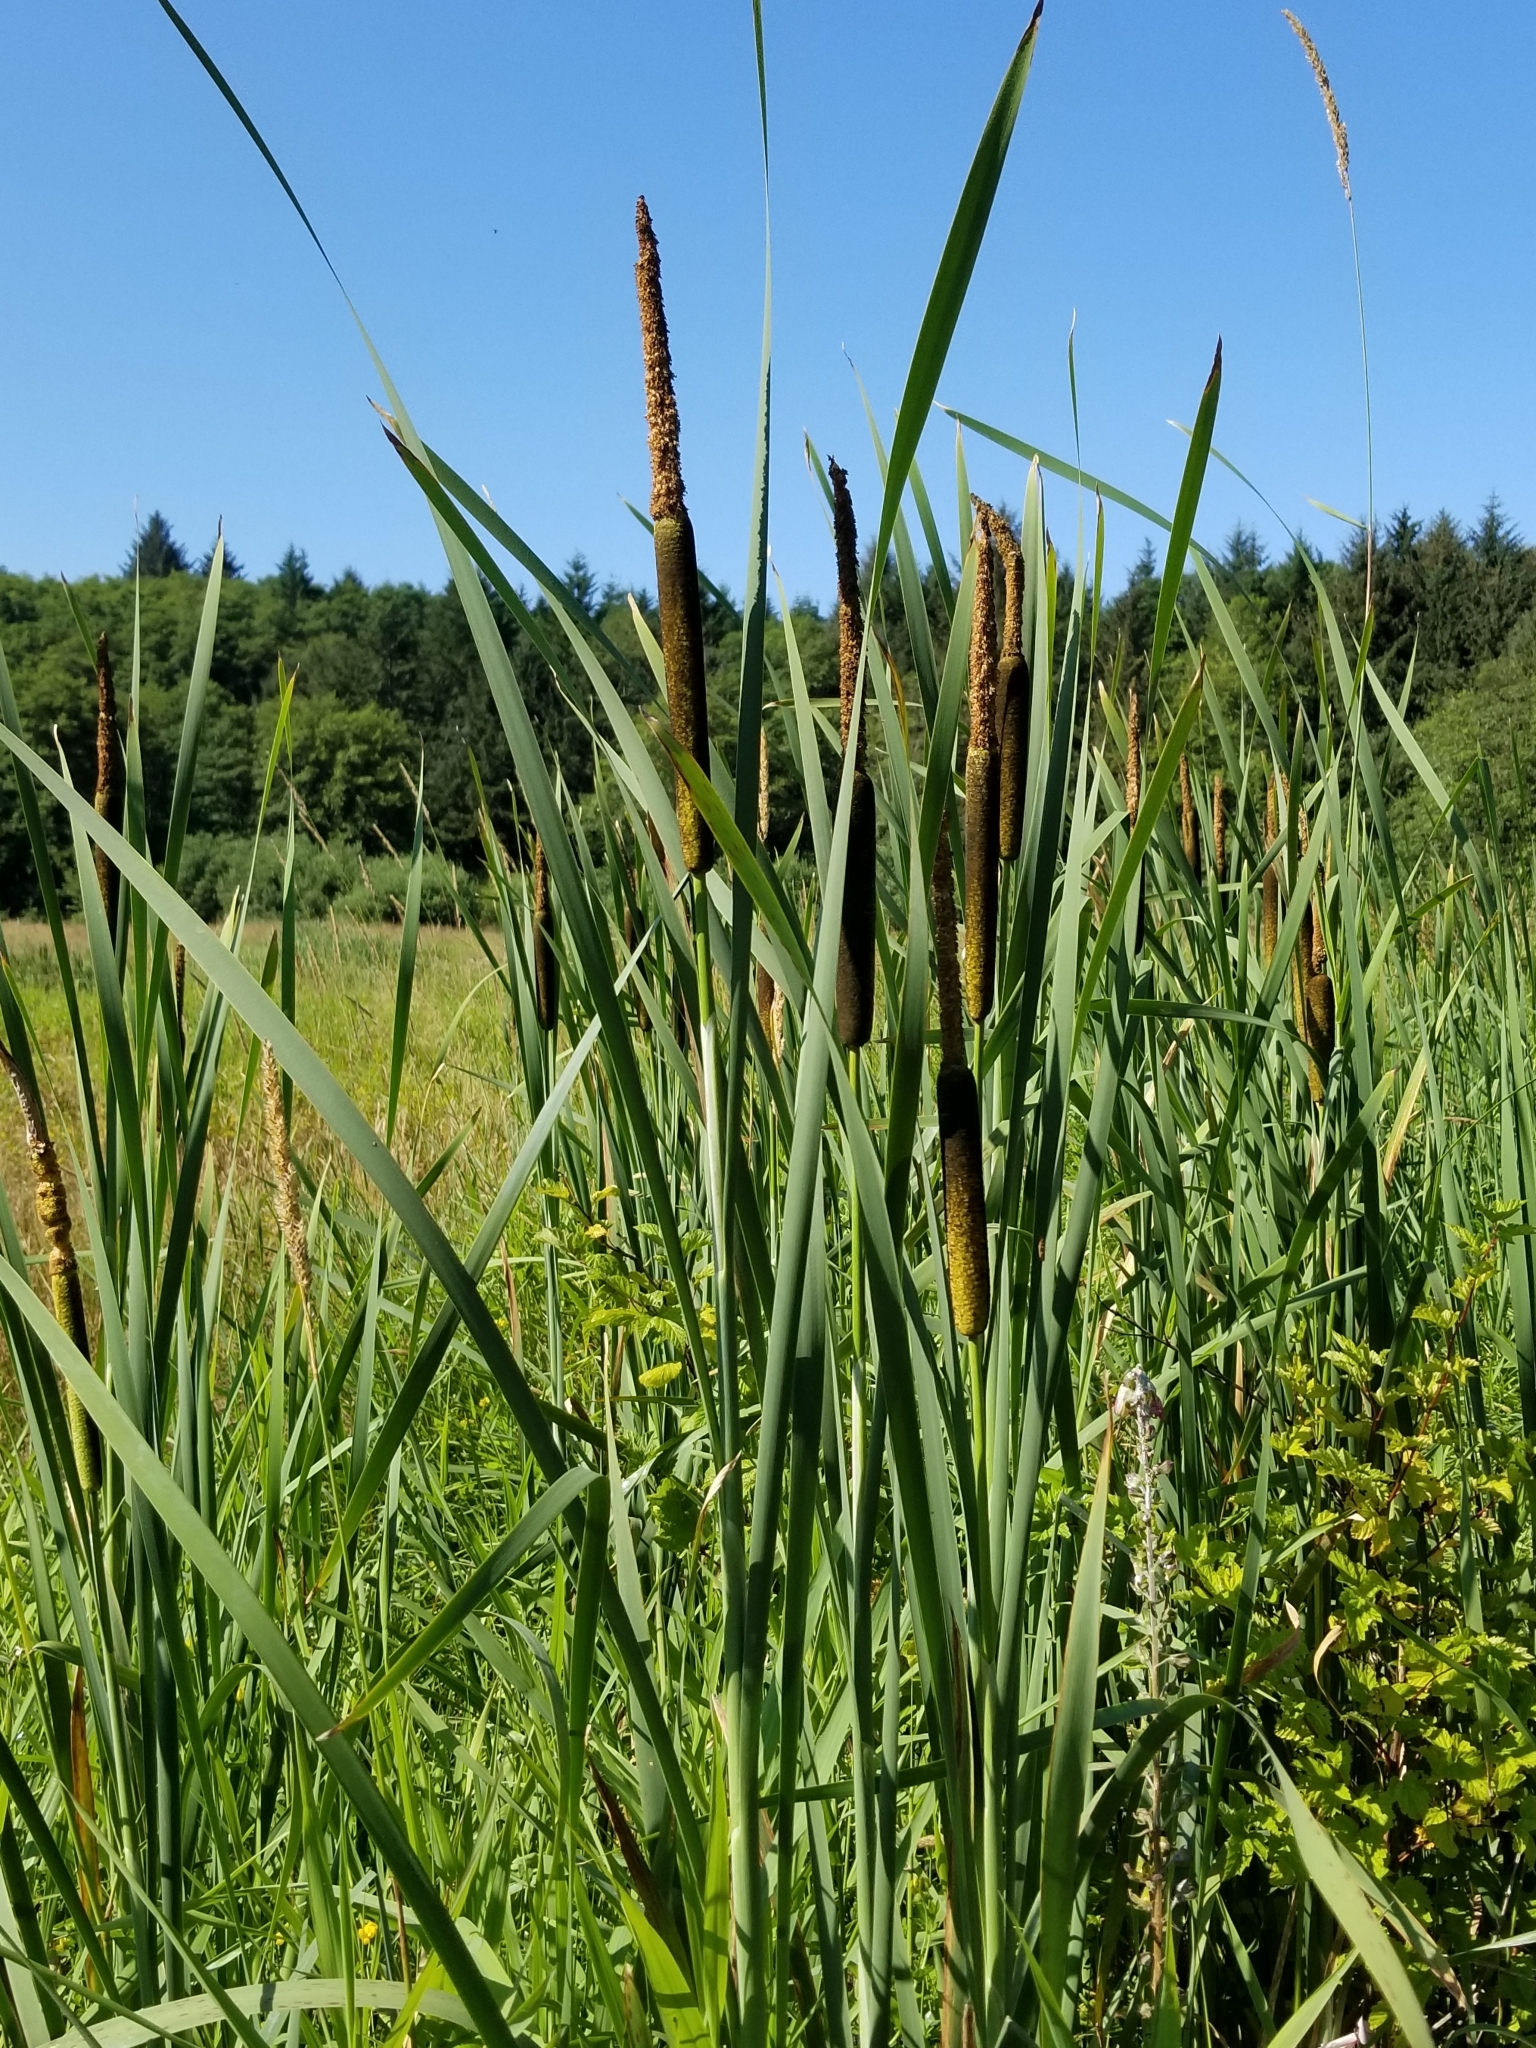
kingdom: Plantae
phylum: Tracheophyta
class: Liliopsida
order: Poales
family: Typhaceae
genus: Typha
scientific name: Typha latifolia
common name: Broadleaf cattail
